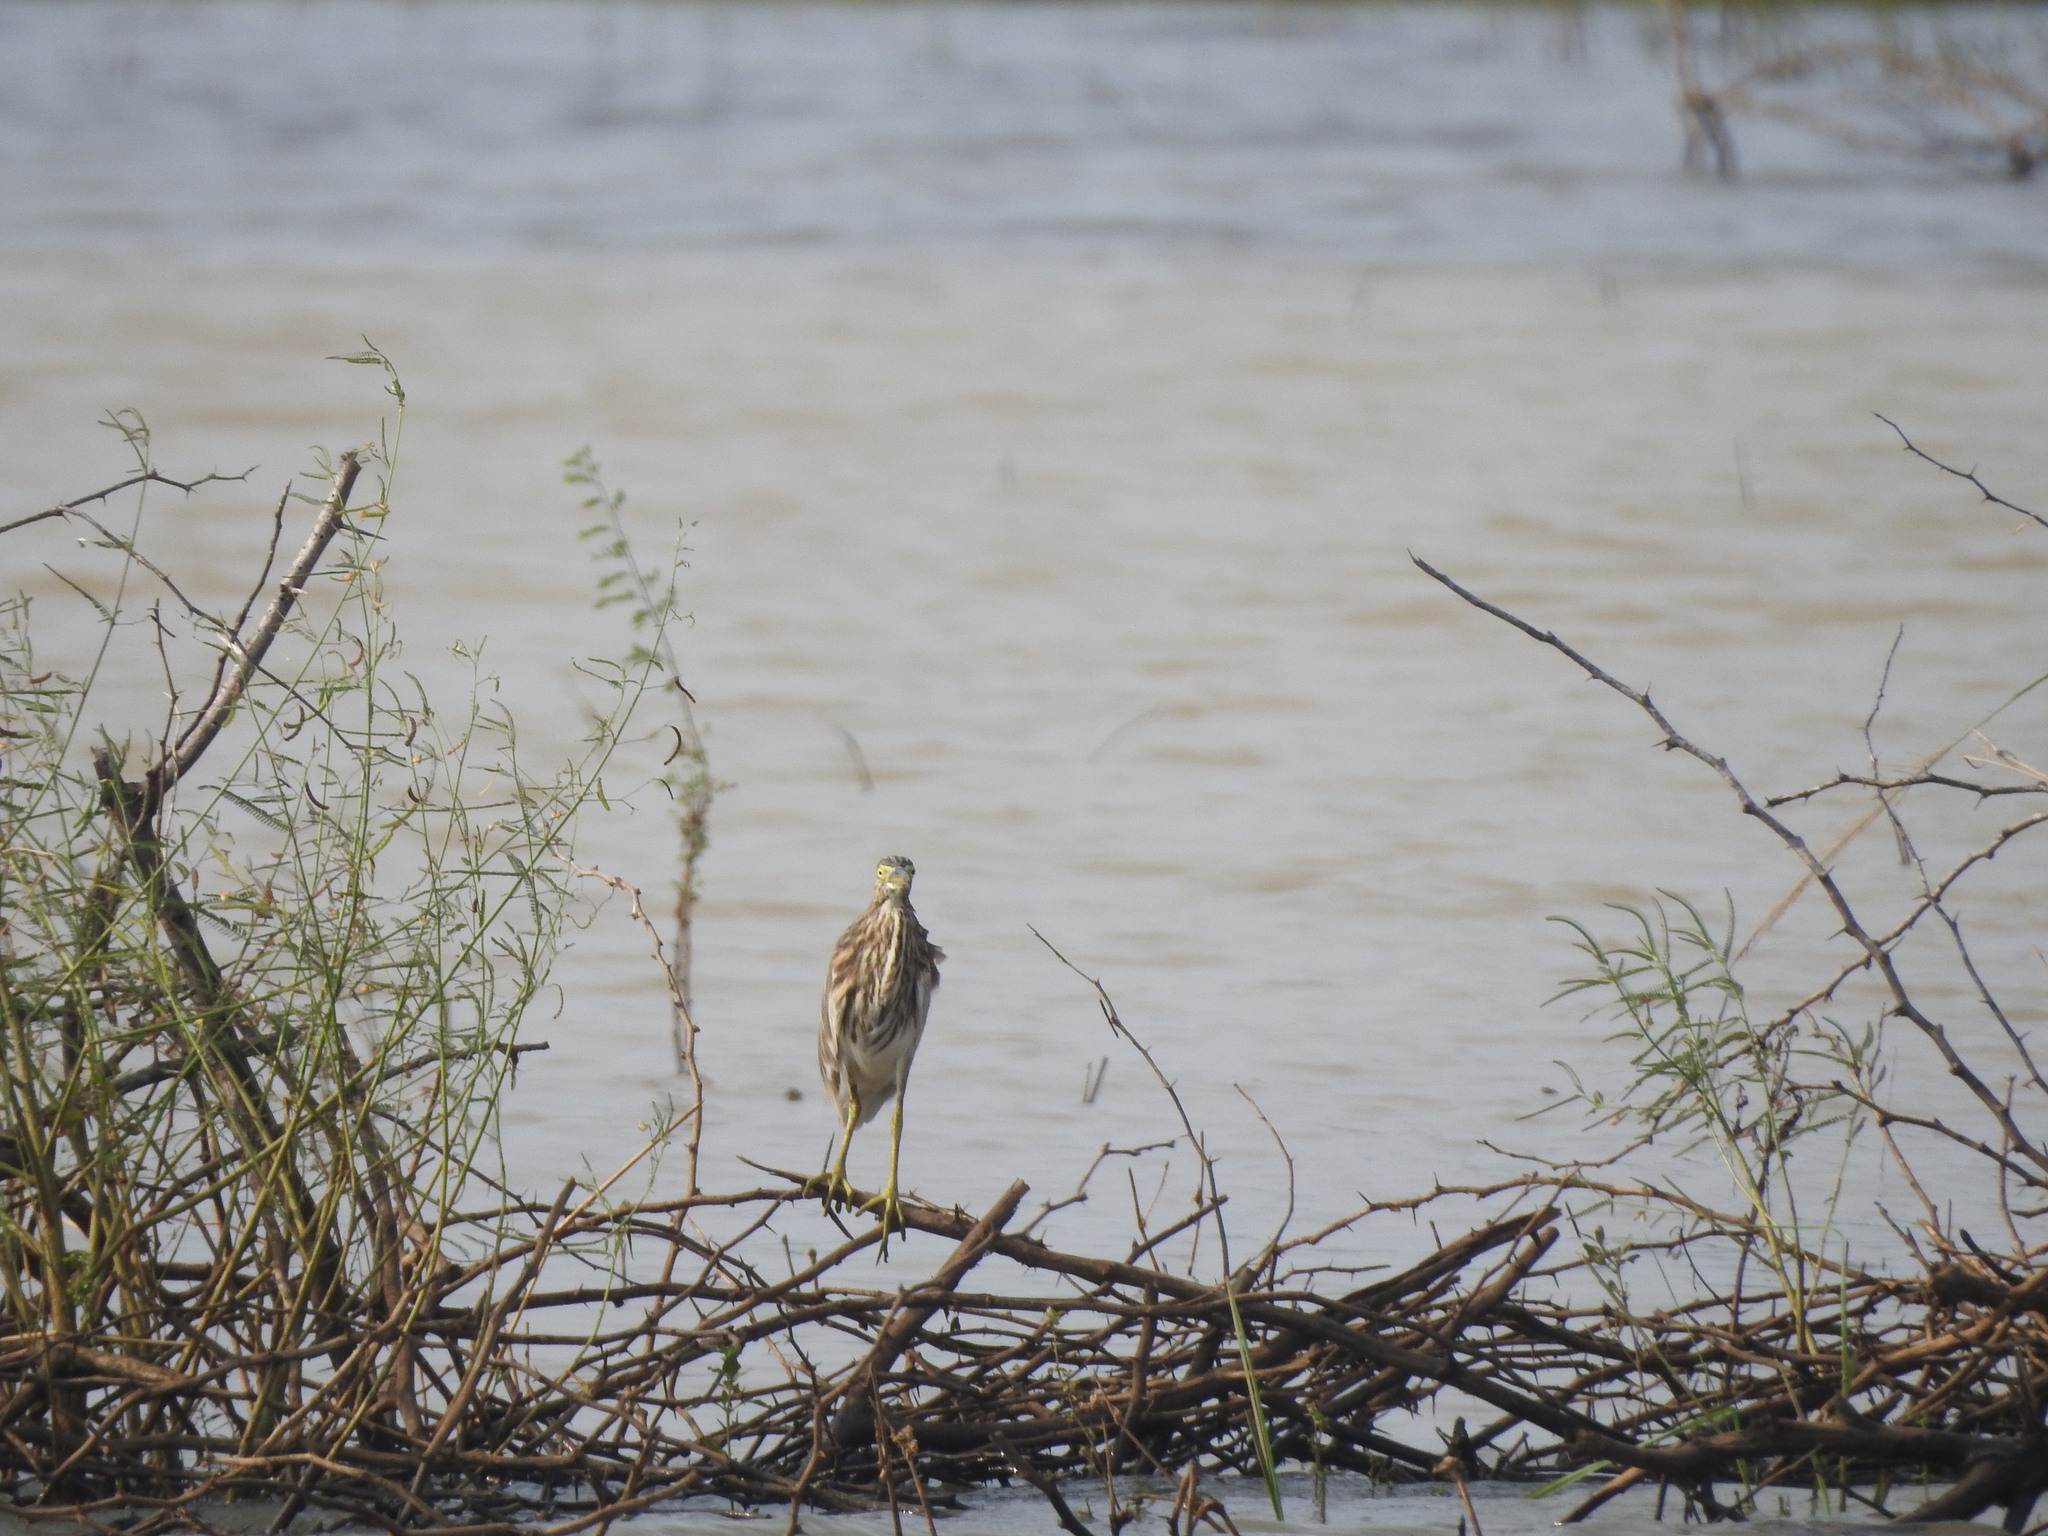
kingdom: Animalia
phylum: Chordata
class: Aves
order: Pelecaniformes
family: Ardeidae
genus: Ardeola
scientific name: Ardeola grayii
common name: Indian pond heron
